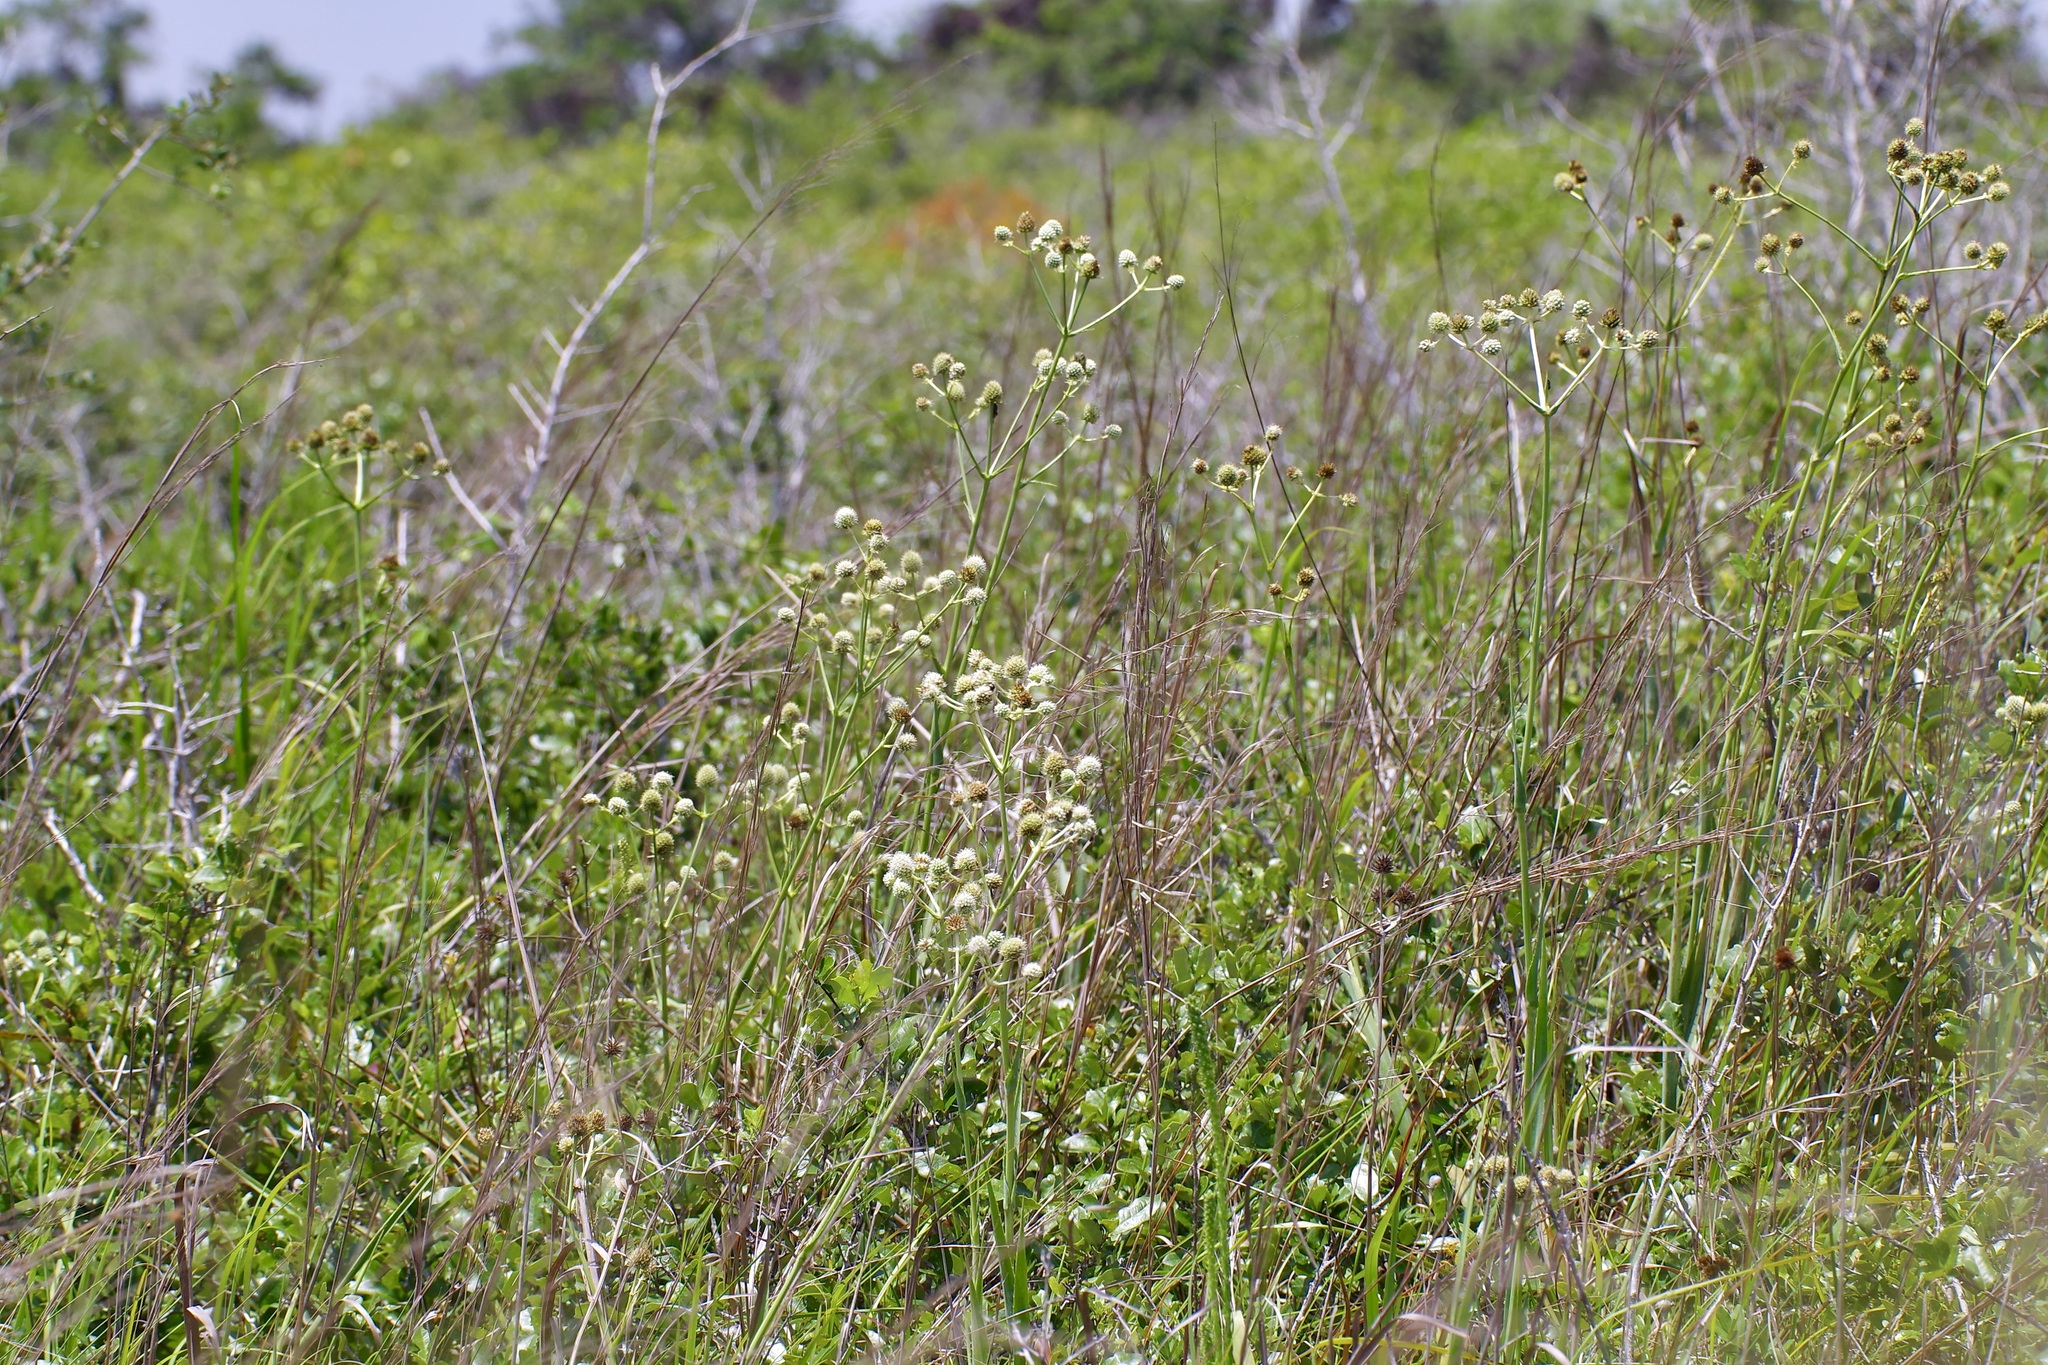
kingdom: Plantae
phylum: Tracheophyta
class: Magnoliopsida
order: Apiales
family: Apiaceae
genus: Eryngium
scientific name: Eryngium yuccifolium
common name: Button eryngo
